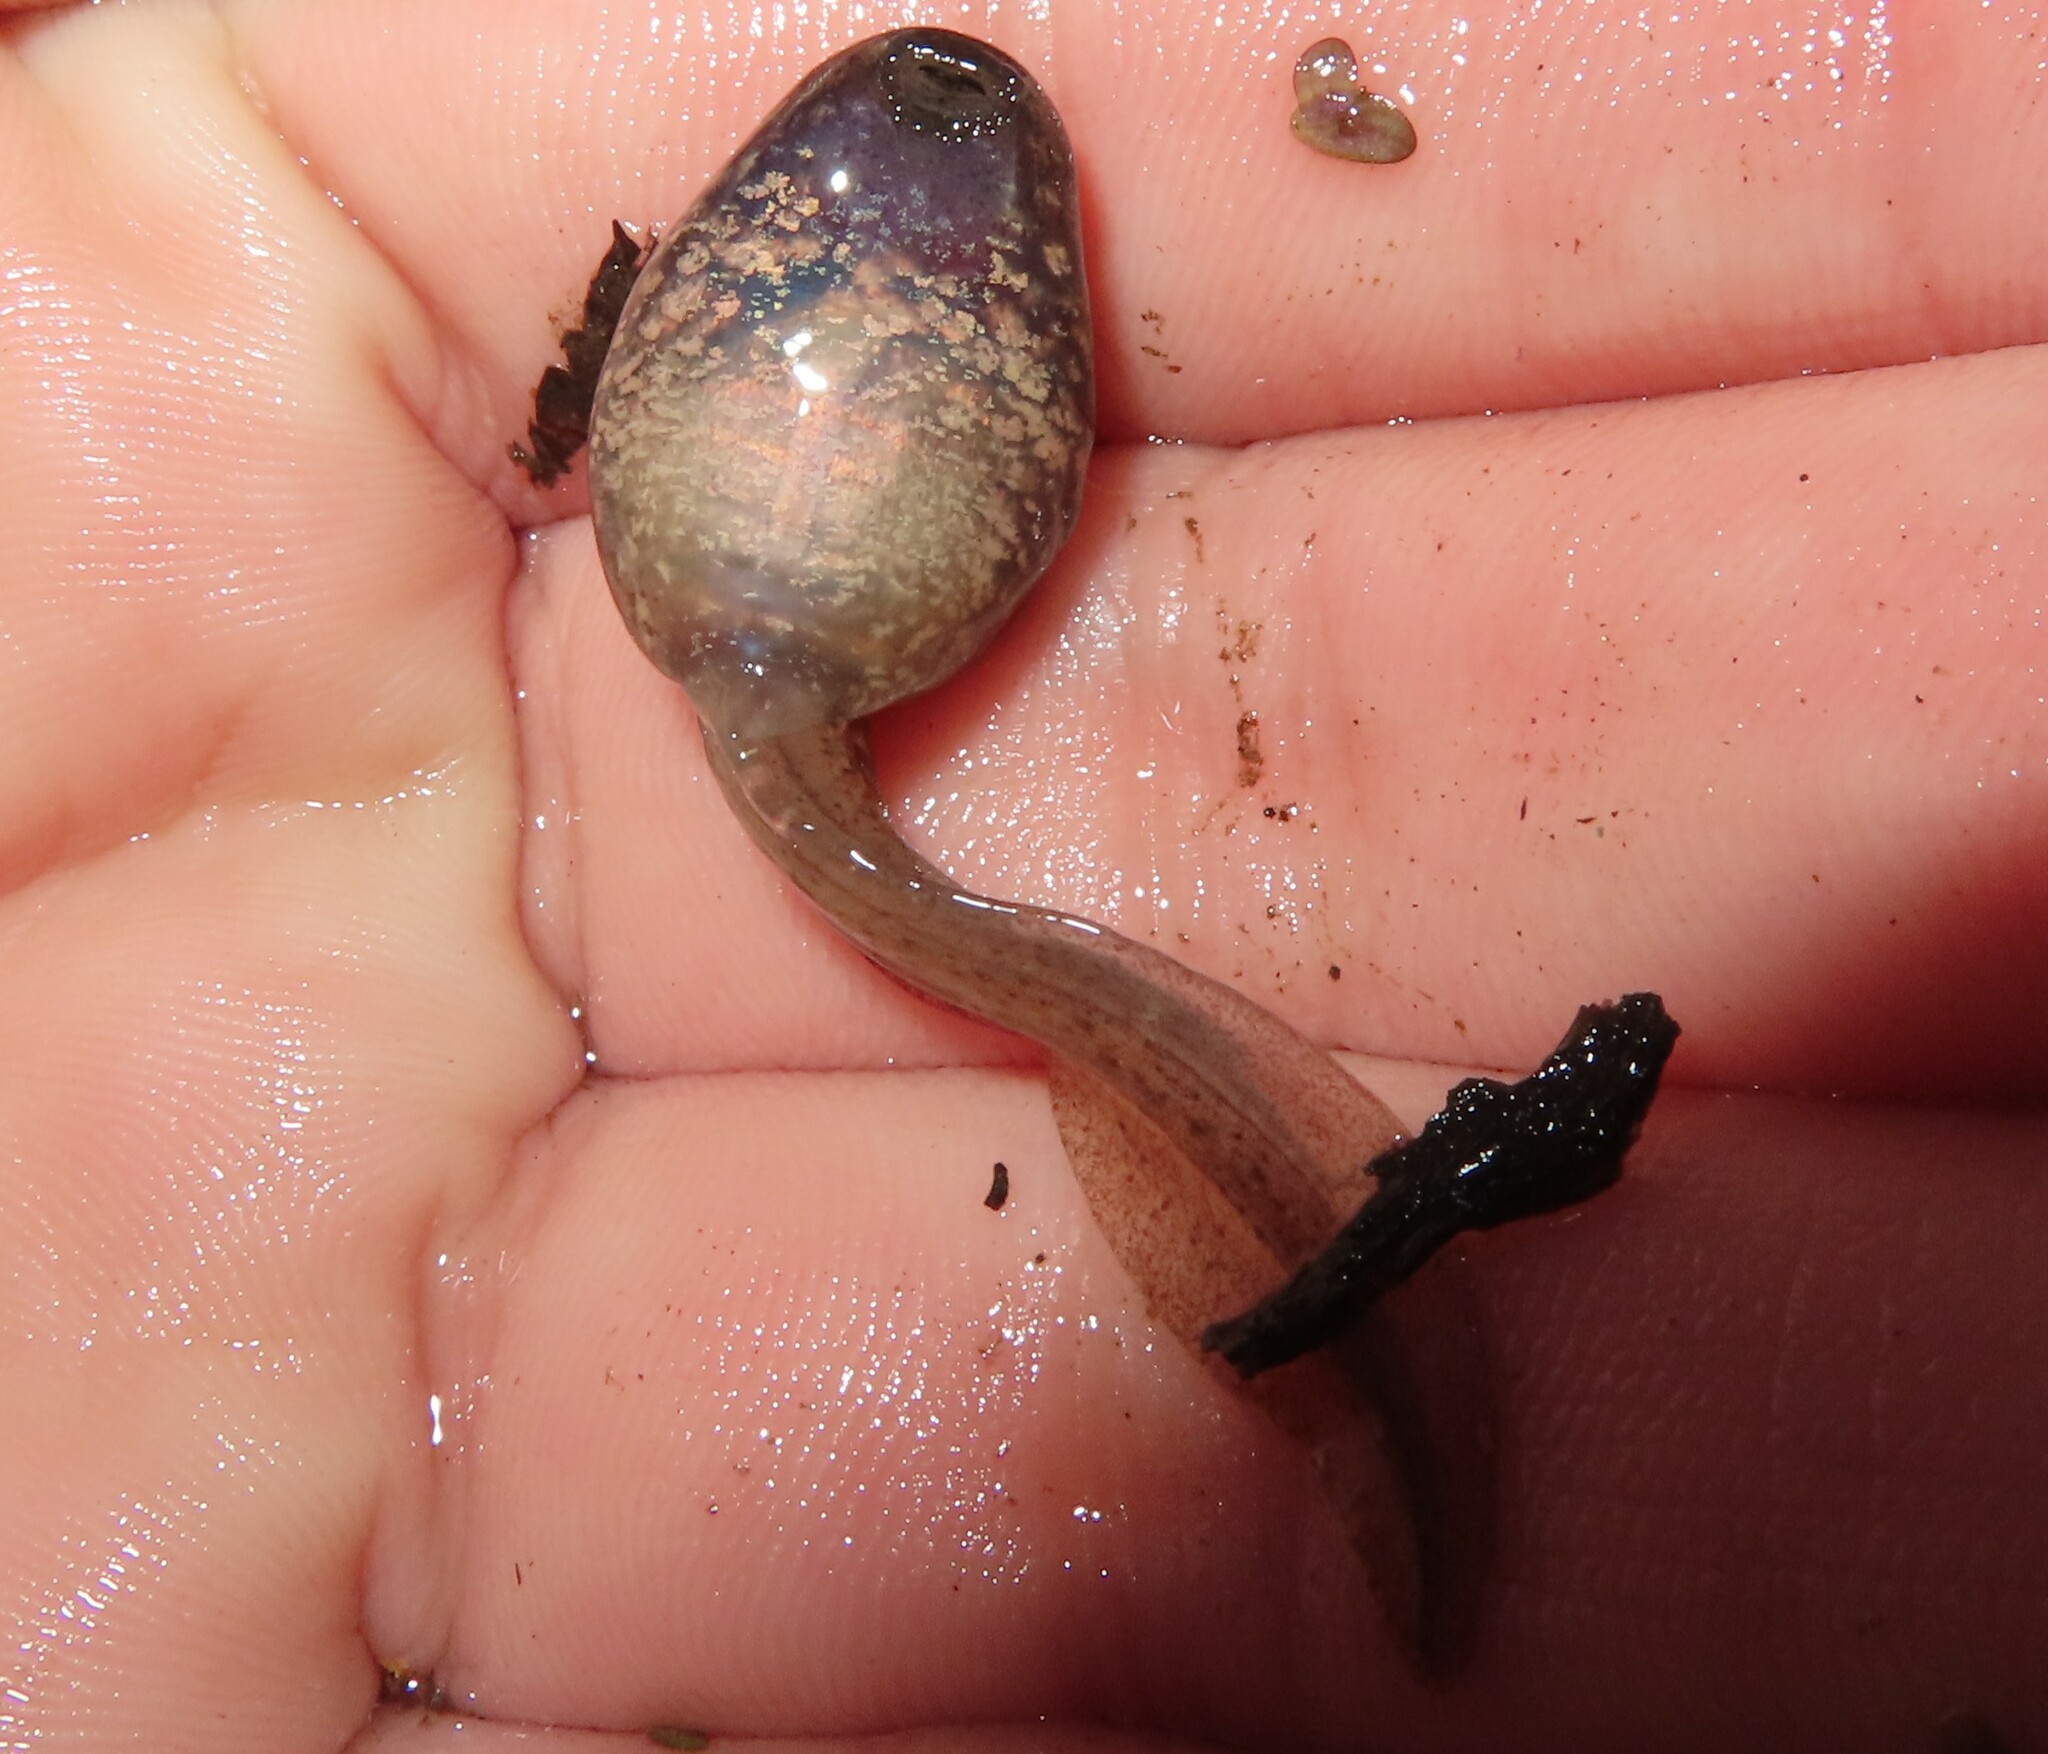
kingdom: Animalia
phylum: Chordata
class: Amphibia
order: Anura
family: Ranidae
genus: Lithobates
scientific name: Lithobates clamitans
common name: Green frog
